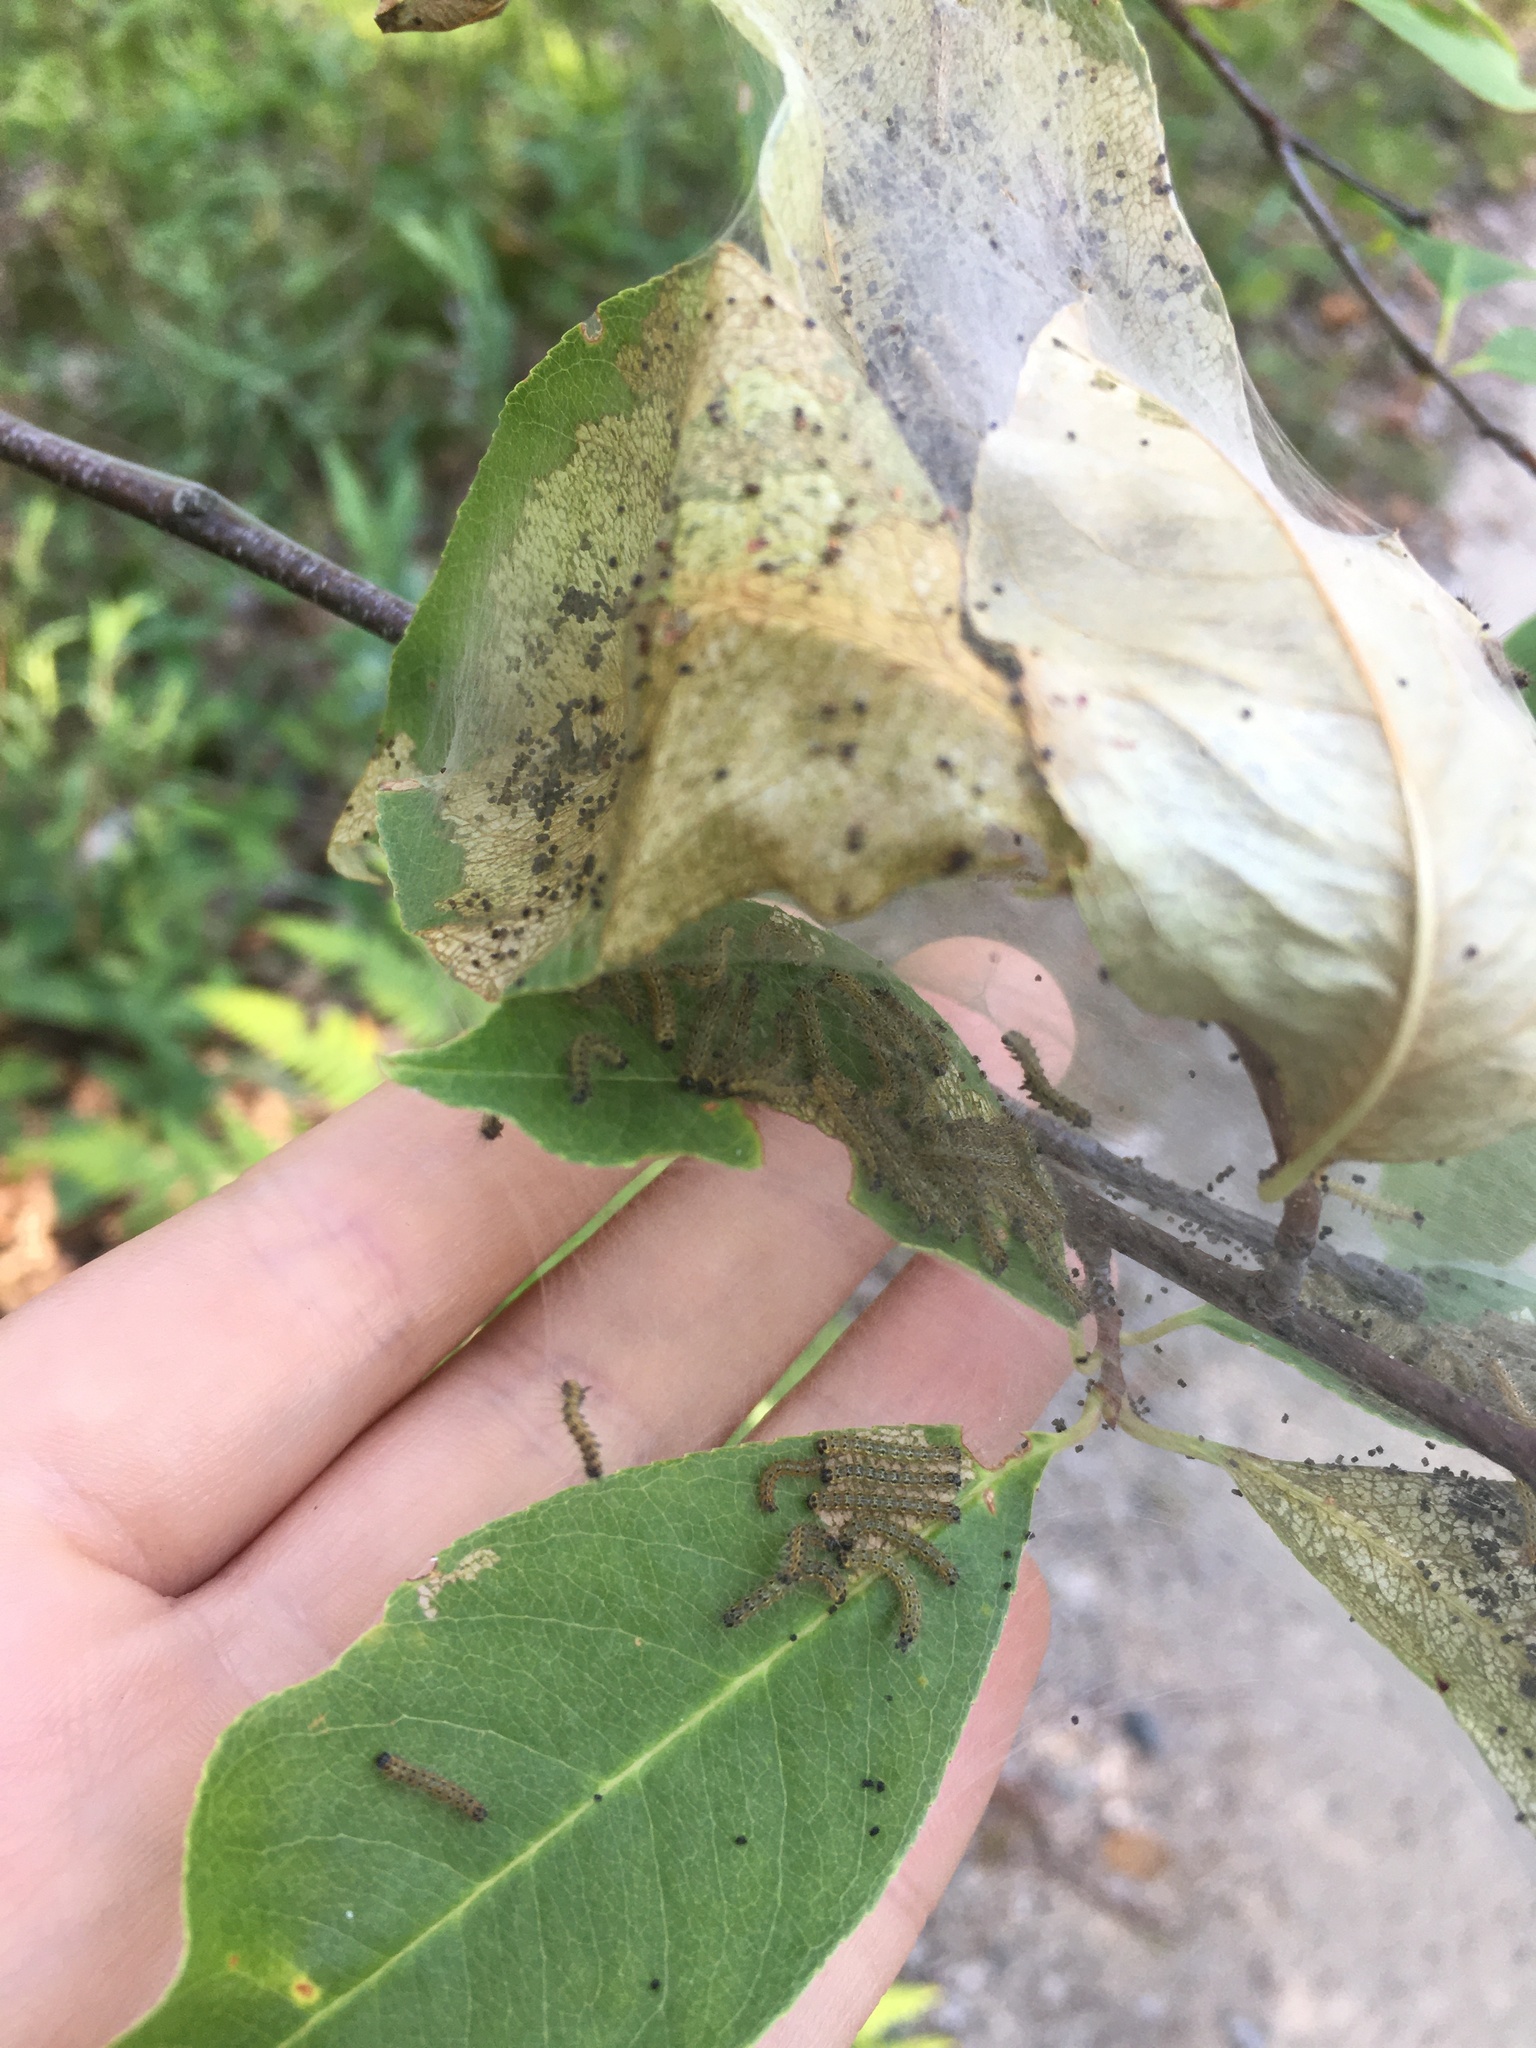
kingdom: Animalia
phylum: Arthropoda
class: Insecta
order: Lepidoptera
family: Erebidae
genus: Hyphantria
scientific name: Hyphantria cunea
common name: American white moth
